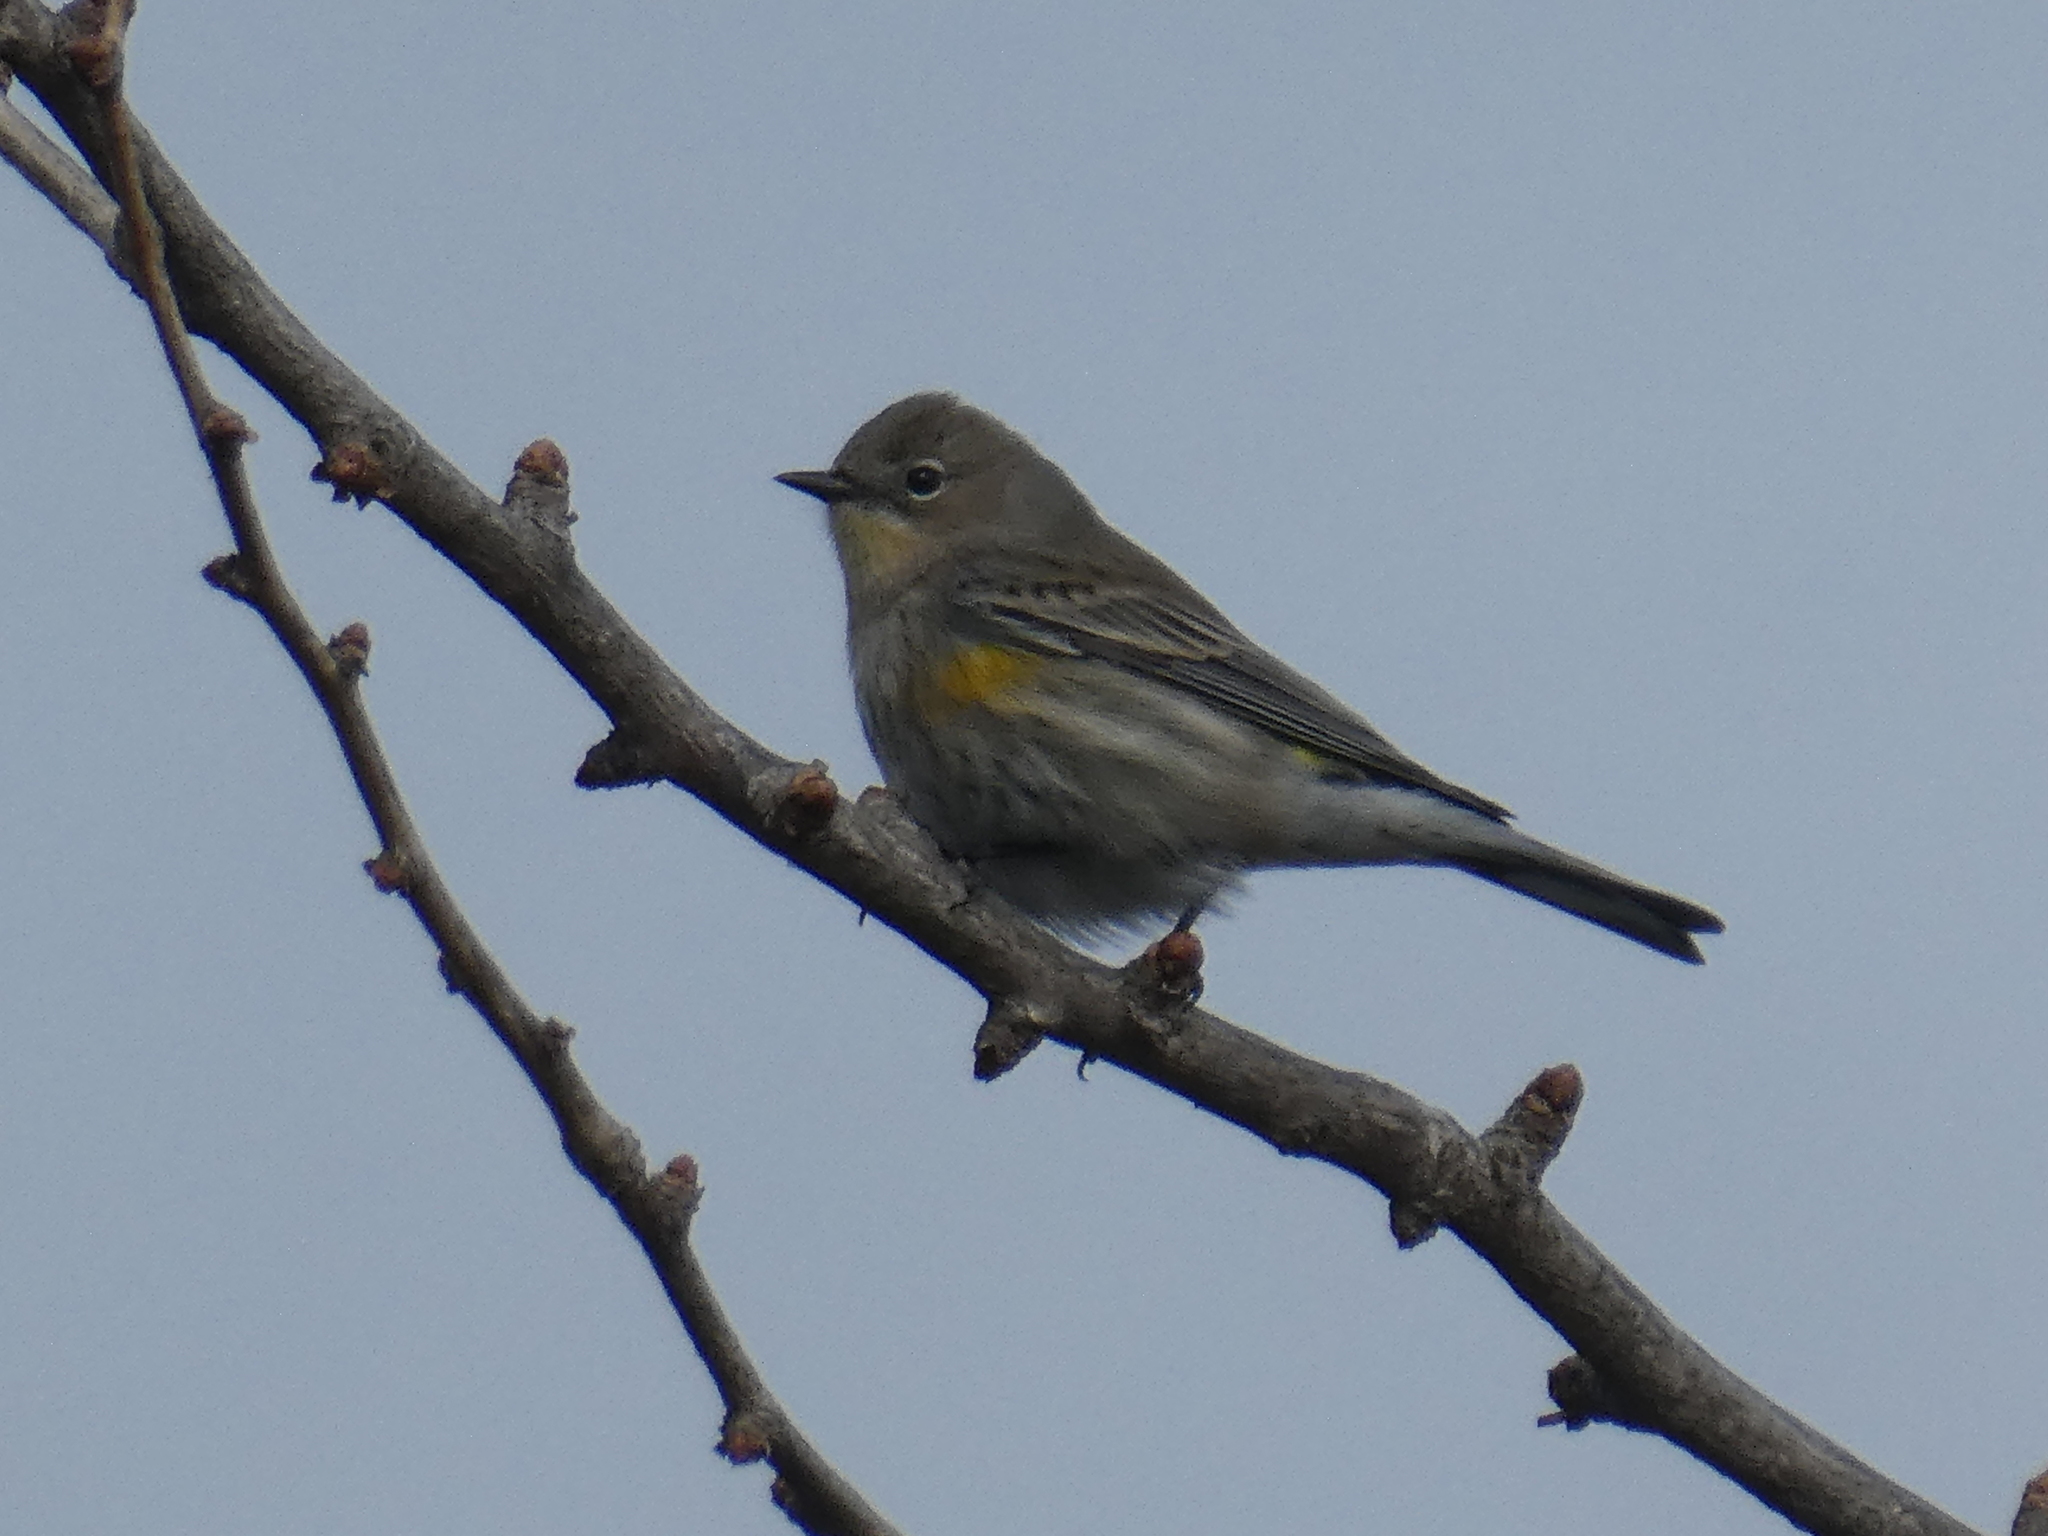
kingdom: Animalia
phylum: Chordata
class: Aves
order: Passeriformes
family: Parulidae
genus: Setophaga
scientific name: Setophaga coronata
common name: Myrtle warbler
